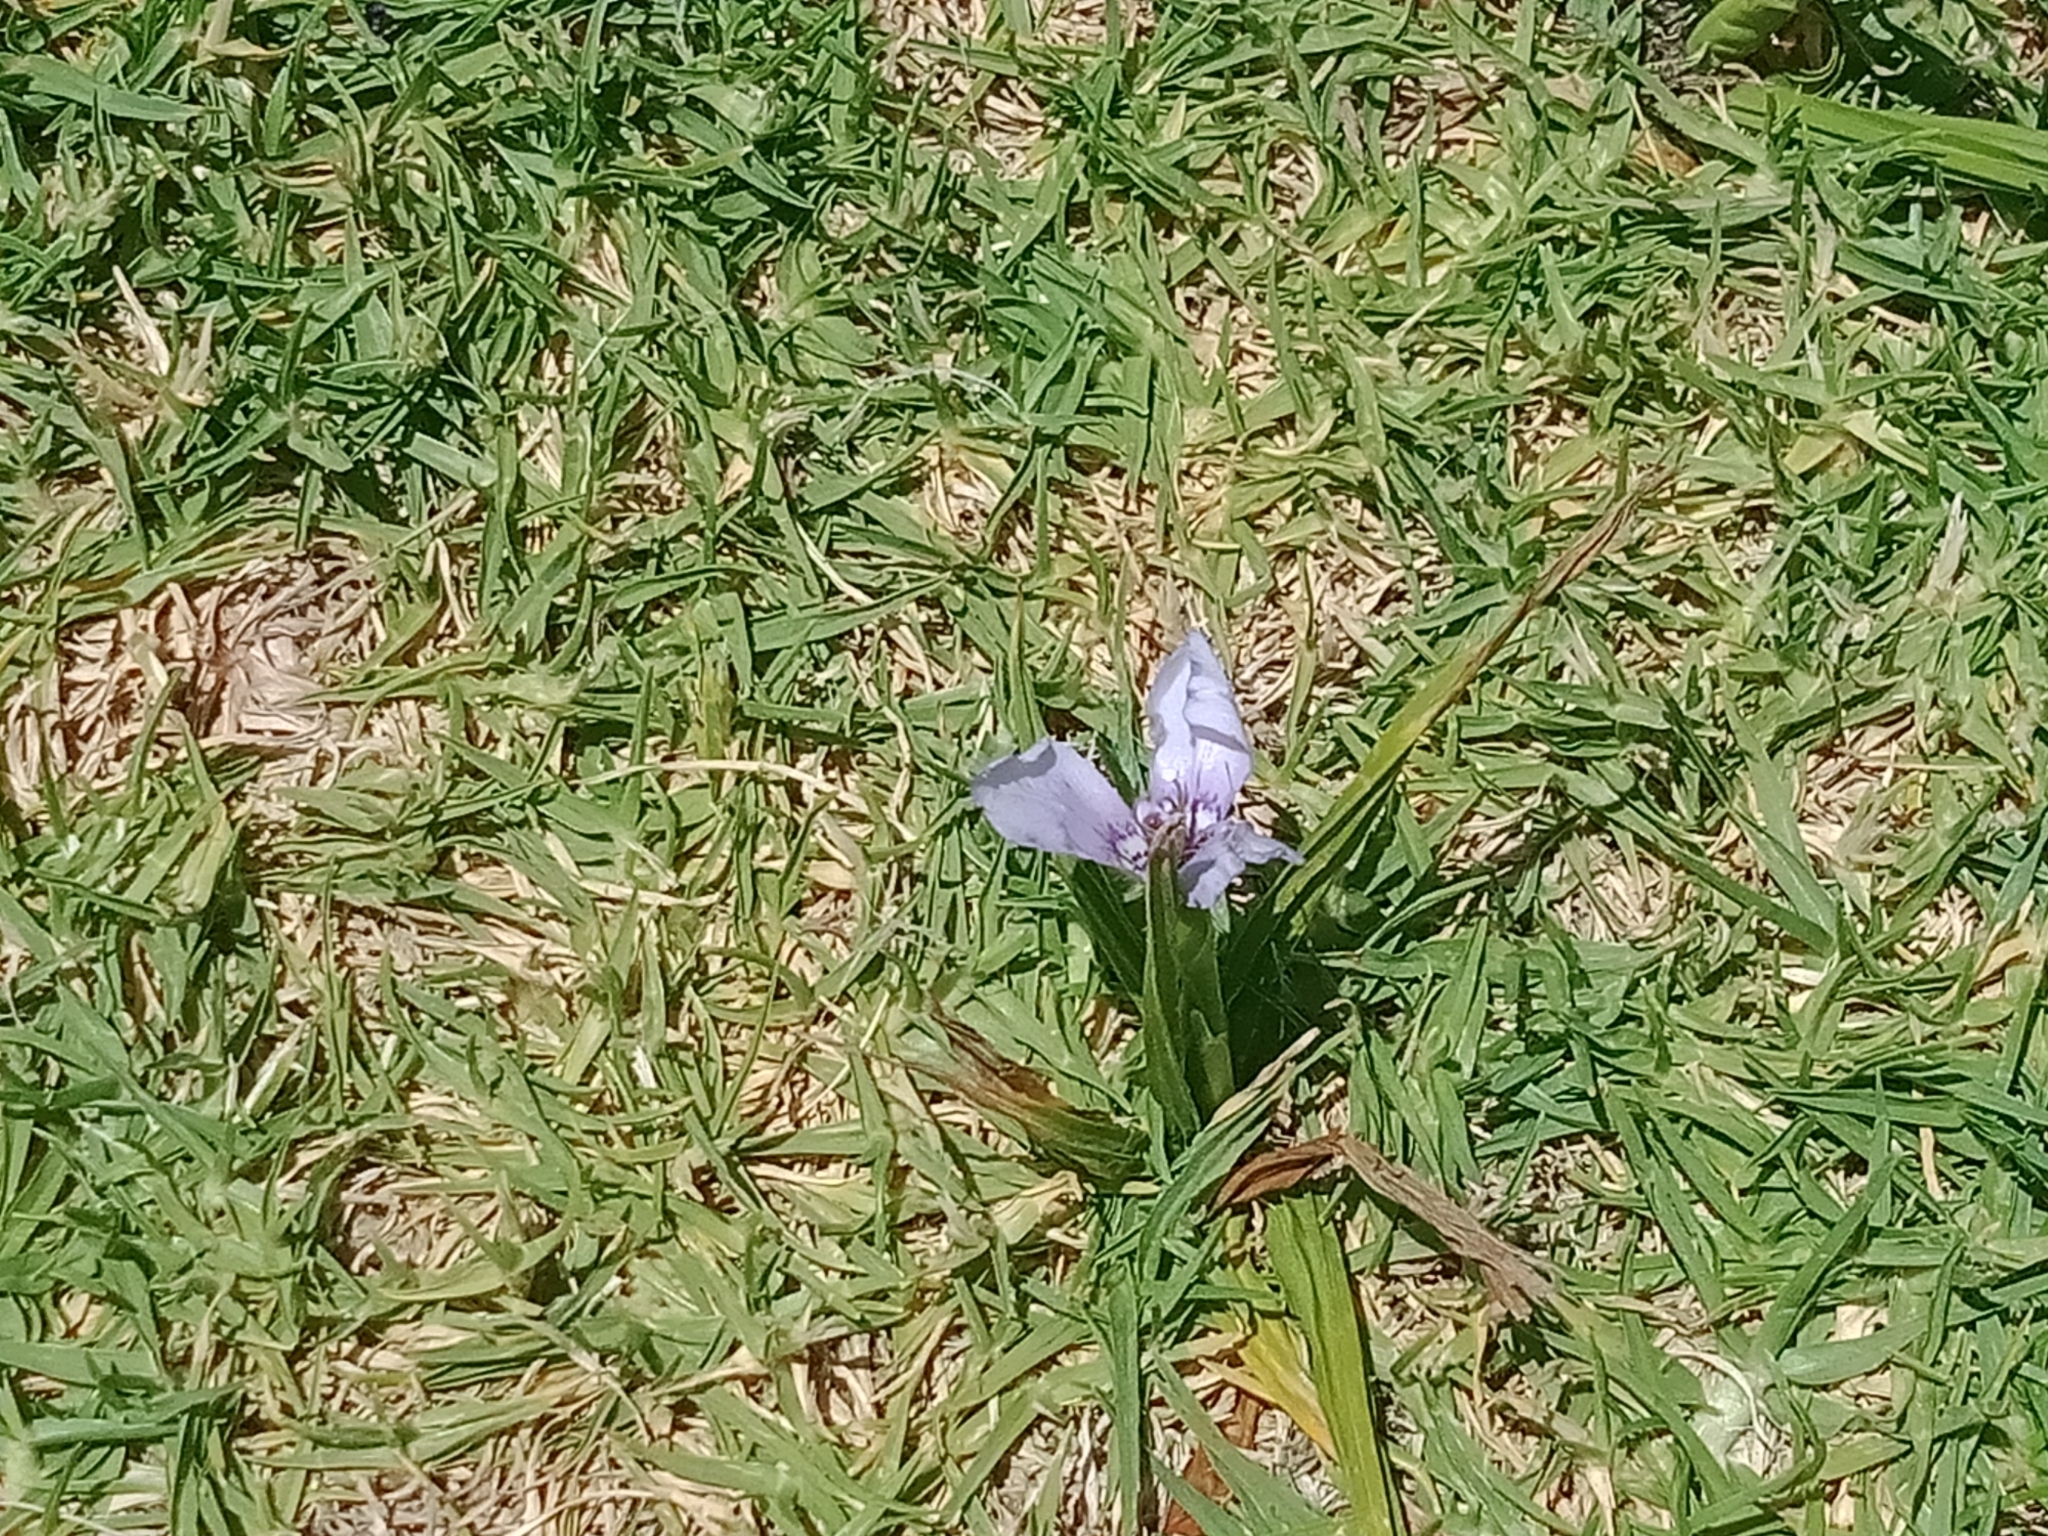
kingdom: Plantae
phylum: Tracheophyta
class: Liliopsida
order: Asparagales
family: Iridaceae
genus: Herbertia
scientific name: Herbertia lahue
